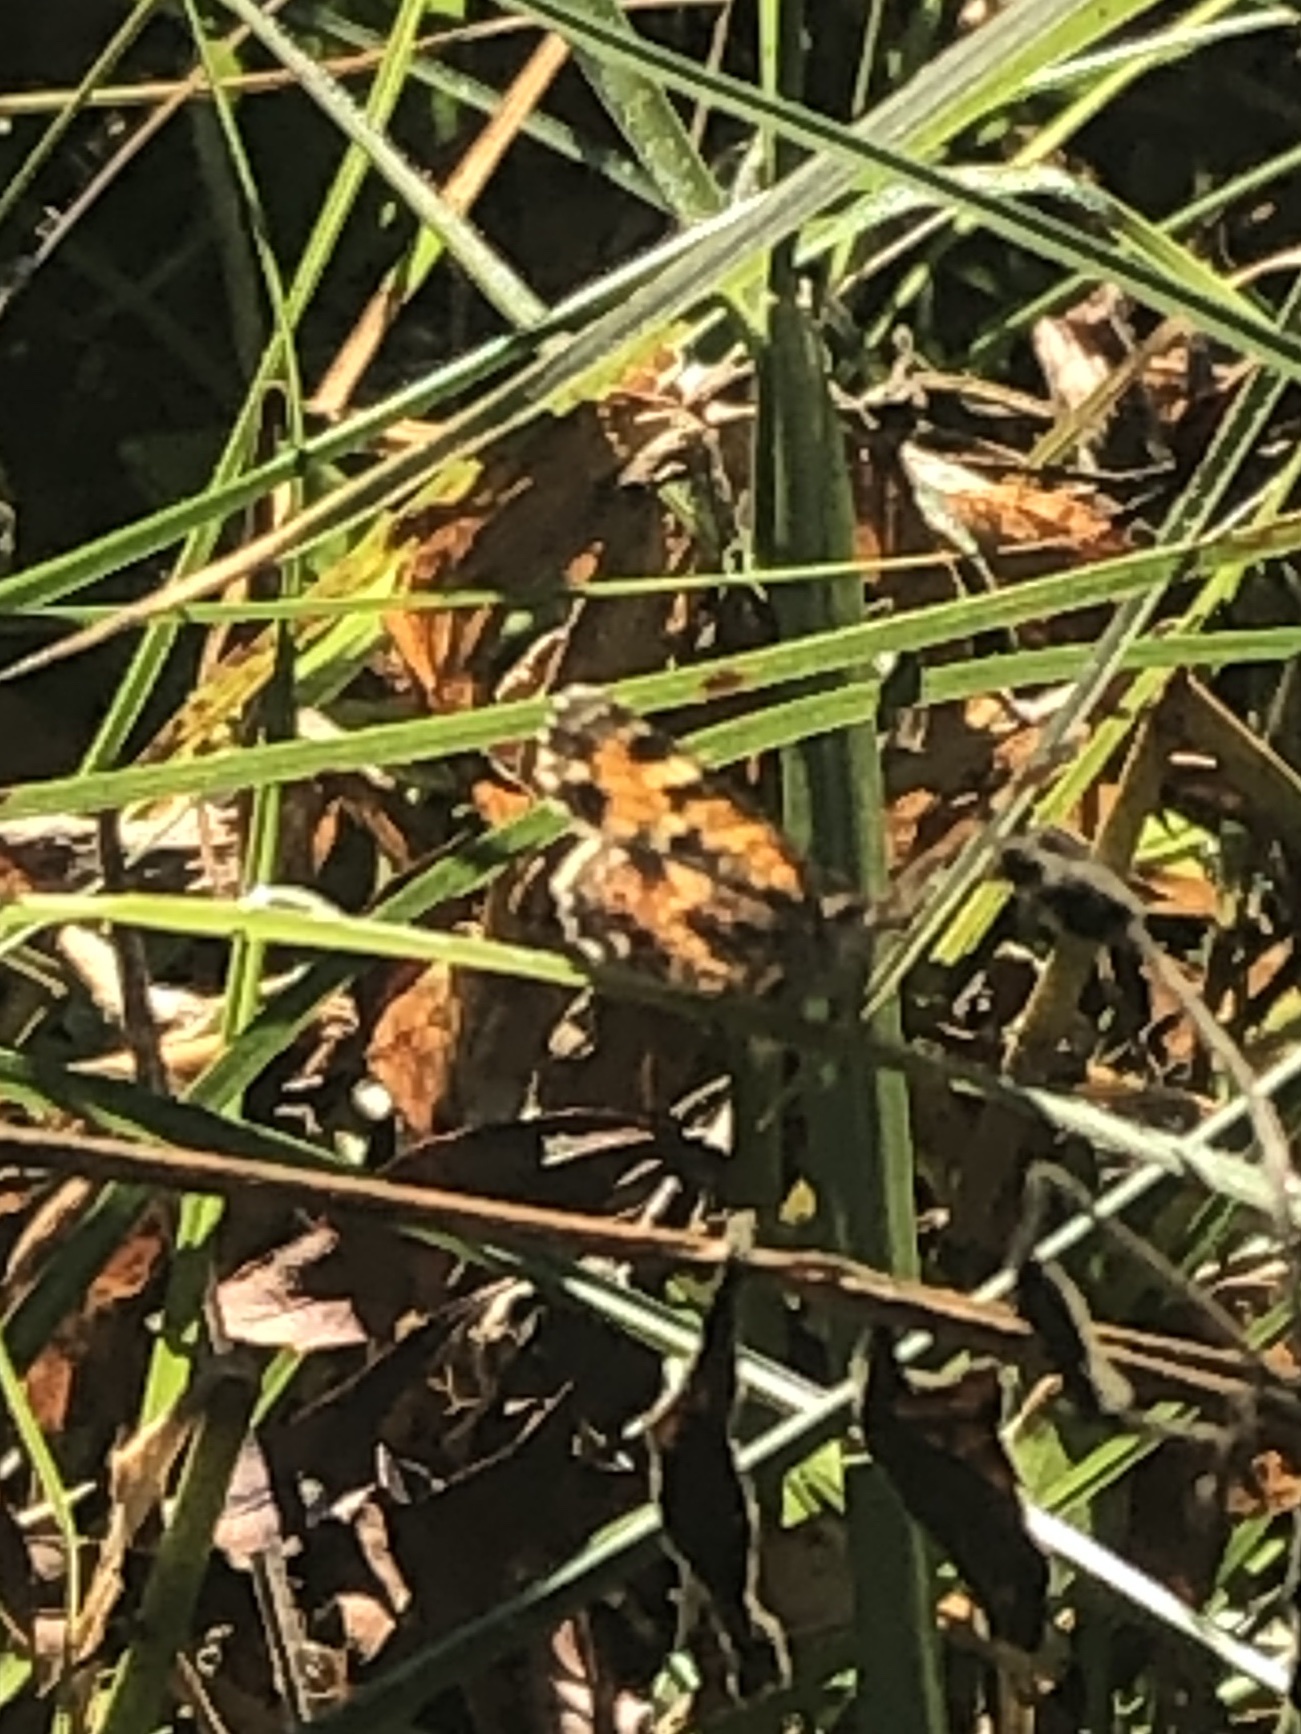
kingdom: Animalia
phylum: Arthropoda
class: Insecta
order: Lepidoptera
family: Nymphalidae
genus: Phyciodes
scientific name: Phyciodes phaon
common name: Phaon crescent
